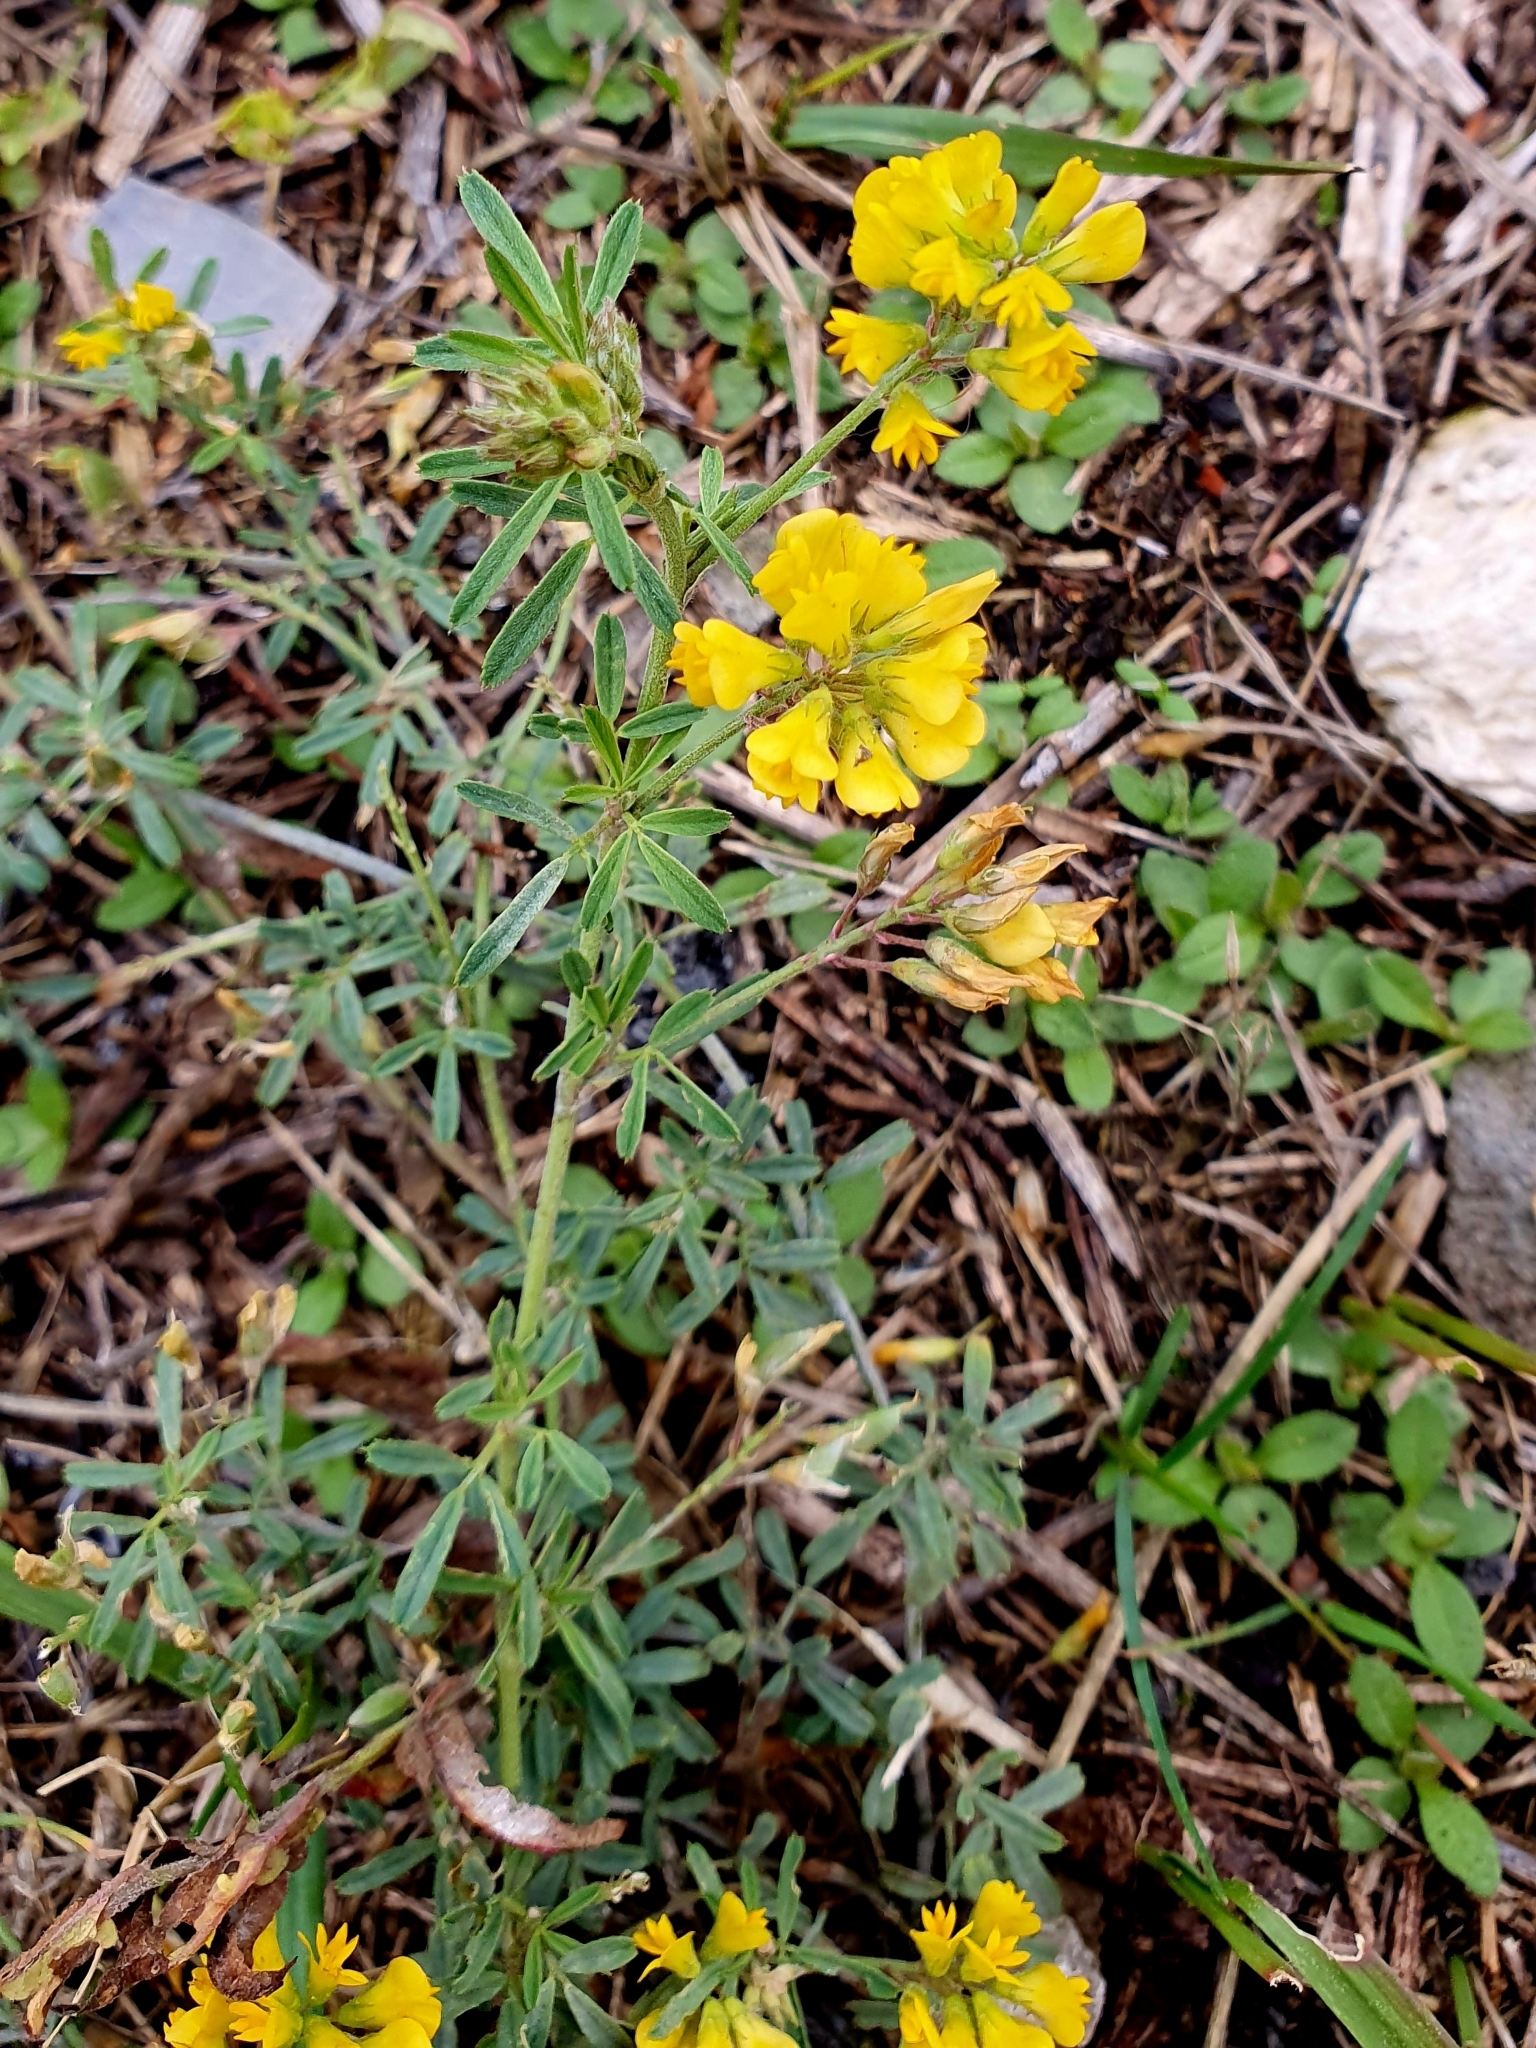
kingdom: Plantae
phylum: Tracheophyta
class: Magnoliopsida
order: Fabales
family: Fabaceae
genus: Medicago
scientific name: Medicago falcata
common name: Sickle medick
